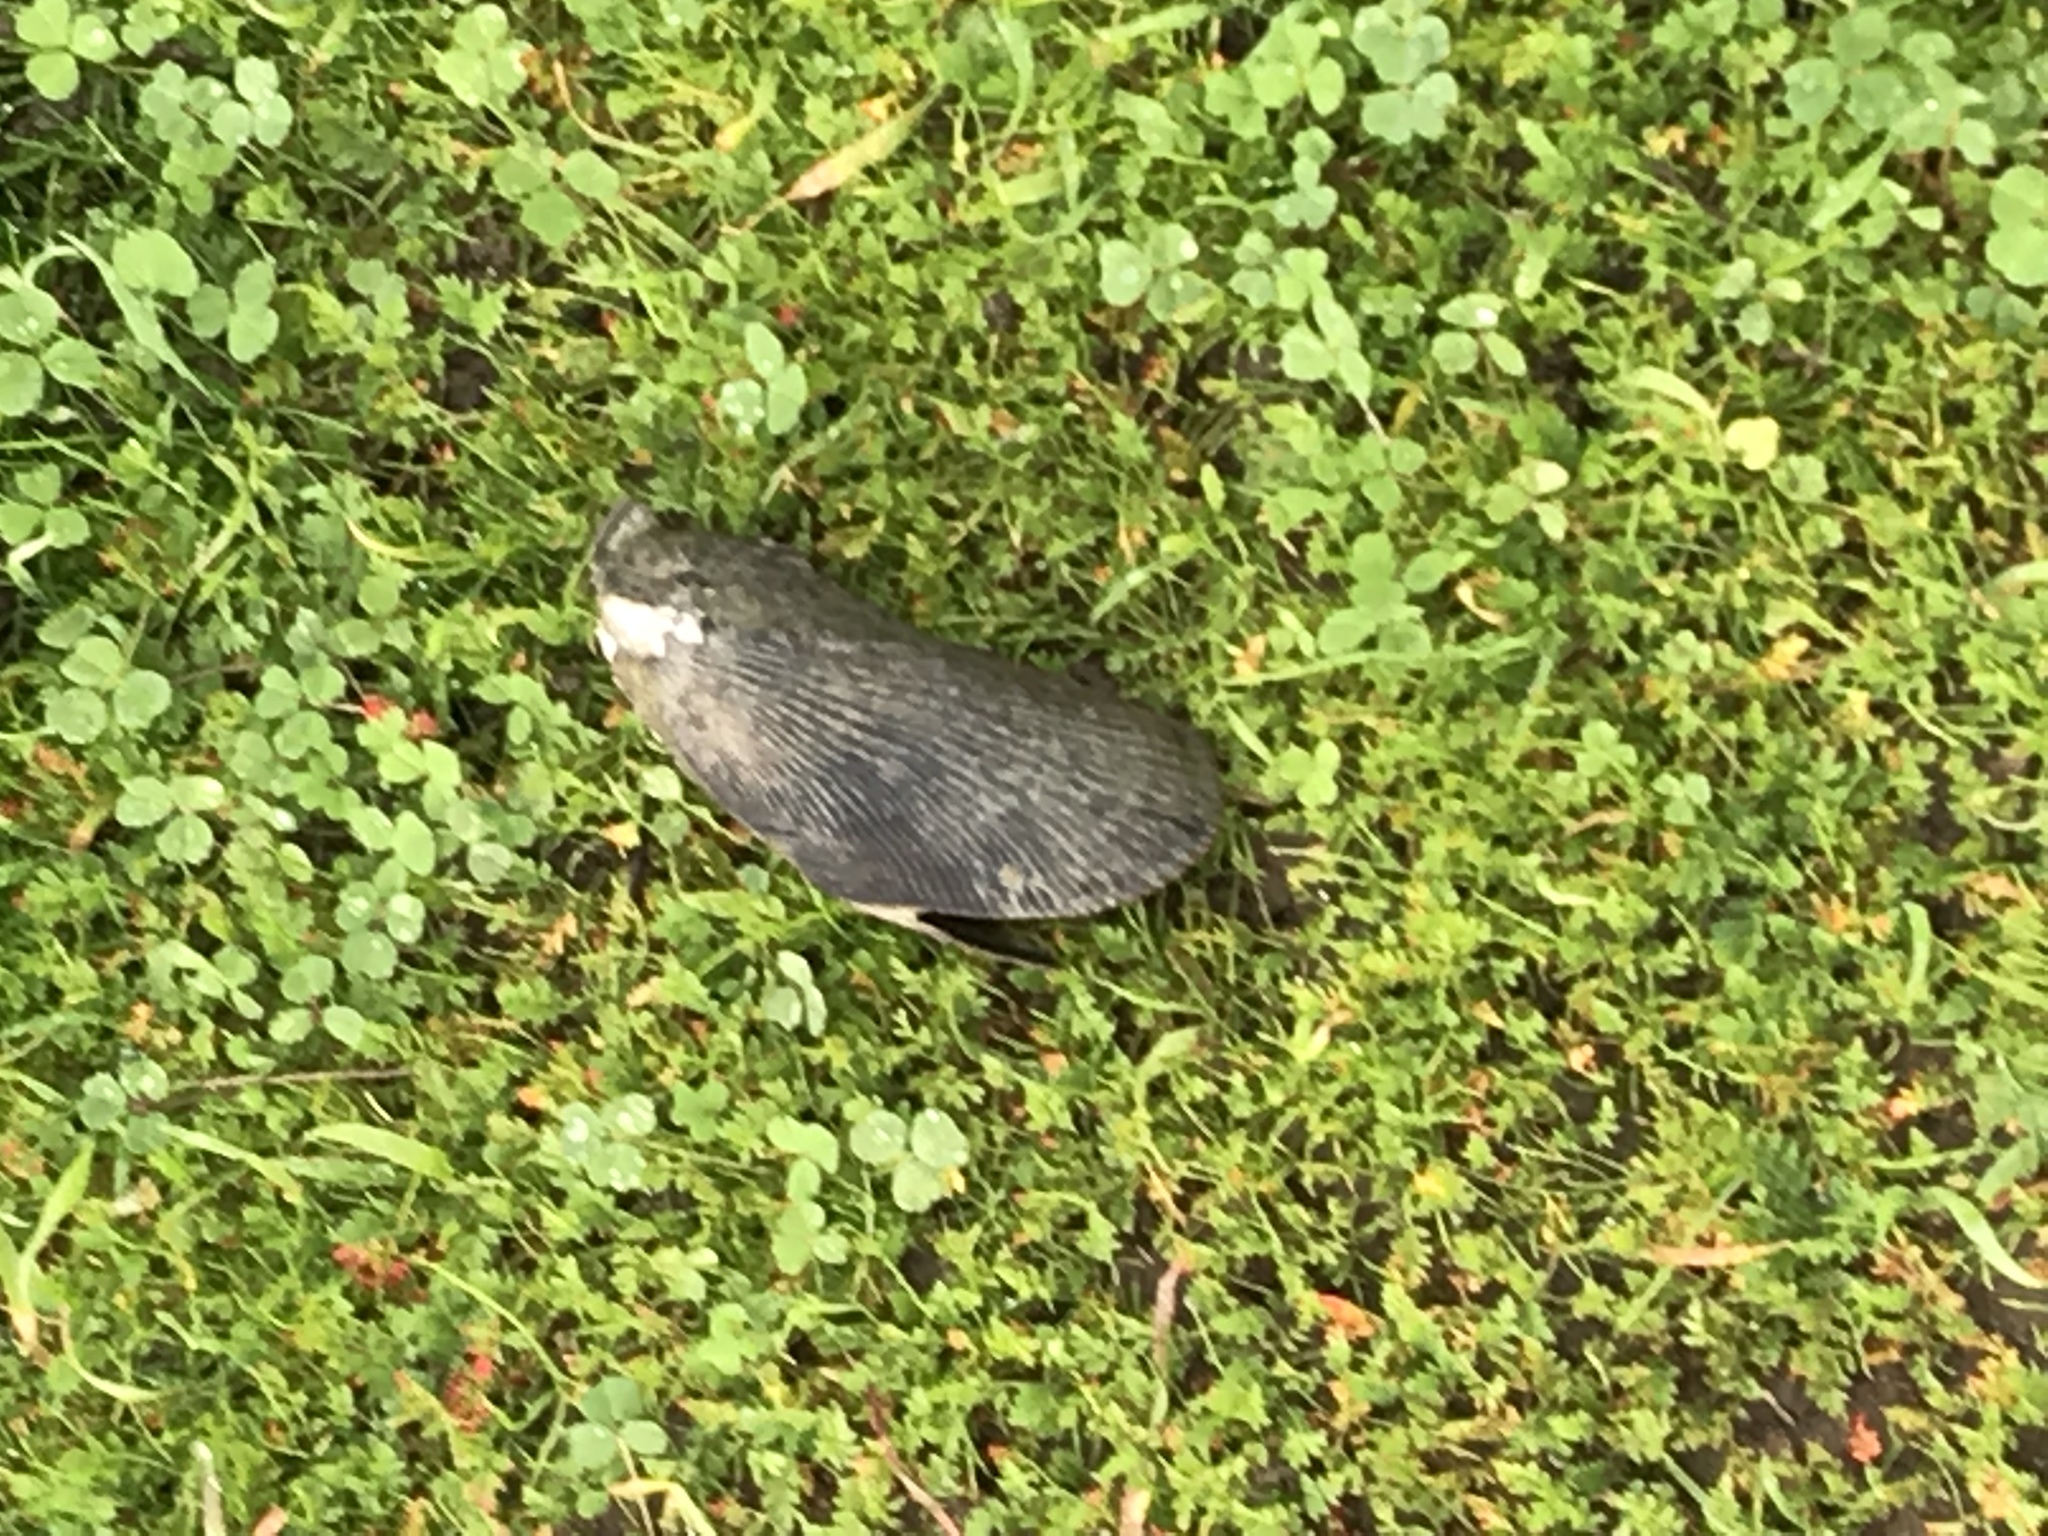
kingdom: Animalia
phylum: Mollusca
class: Bivalvia
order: Mytilida
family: Mytilidae
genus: Geukensia
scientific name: Geukensia demissa
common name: Ribbed mussel
